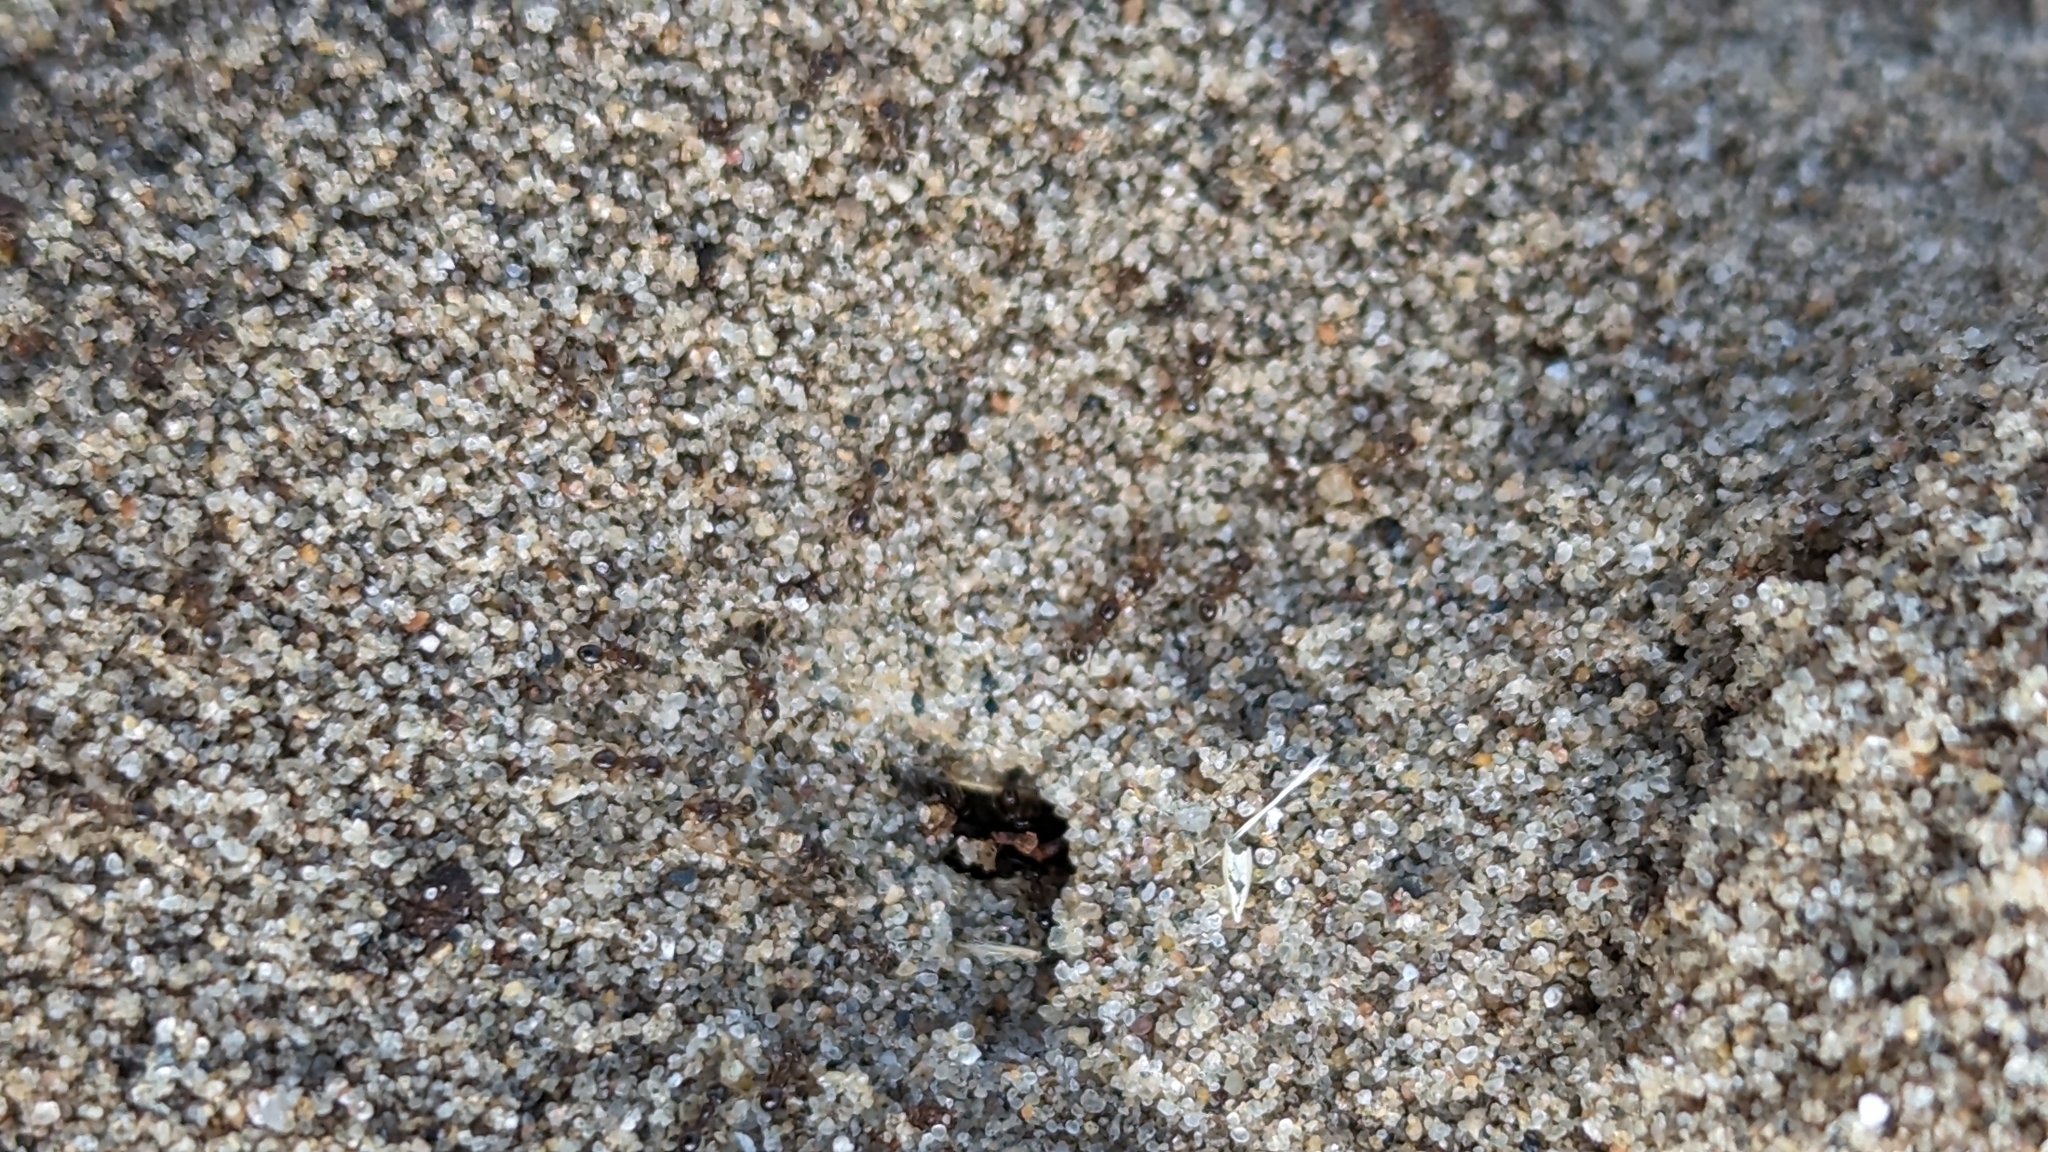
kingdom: Animalia
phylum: Arthropoda
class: Insecta
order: Hymenoptera
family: Formicidae
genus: Pheidole
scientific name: Pheidole bicarinata
